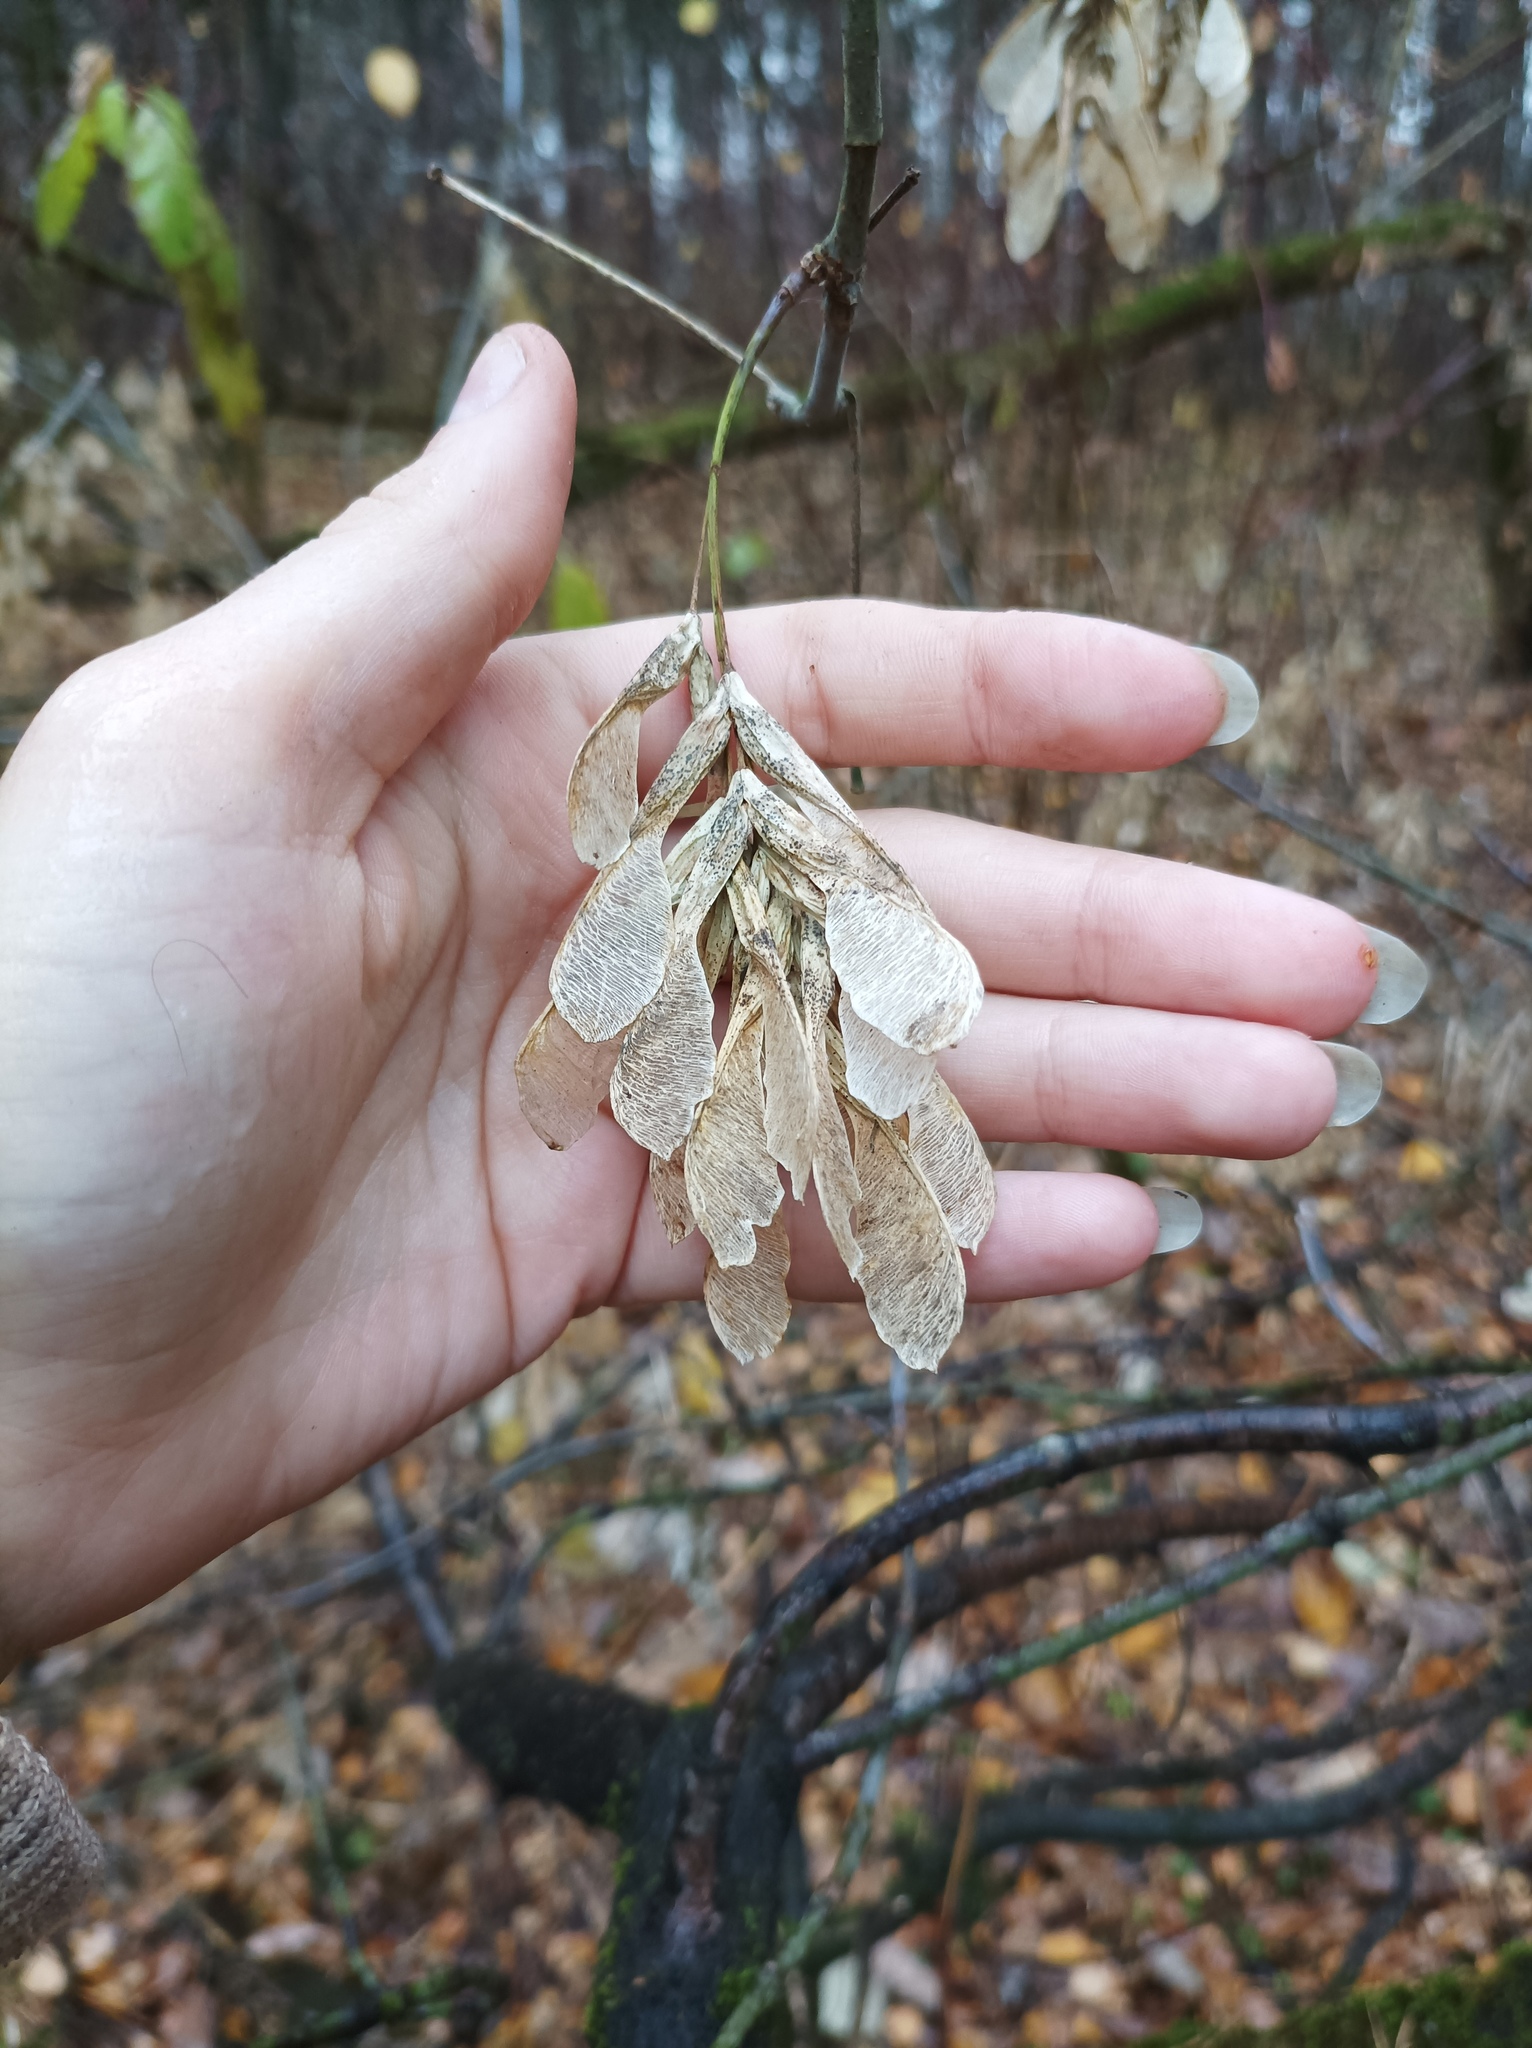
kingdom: Plantae
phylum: Tracheophyta
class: Magnoliopsida
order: Sapindales
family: Sapindaceae
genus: Acer
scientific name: Acer negundo
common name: Ashleaf maple
